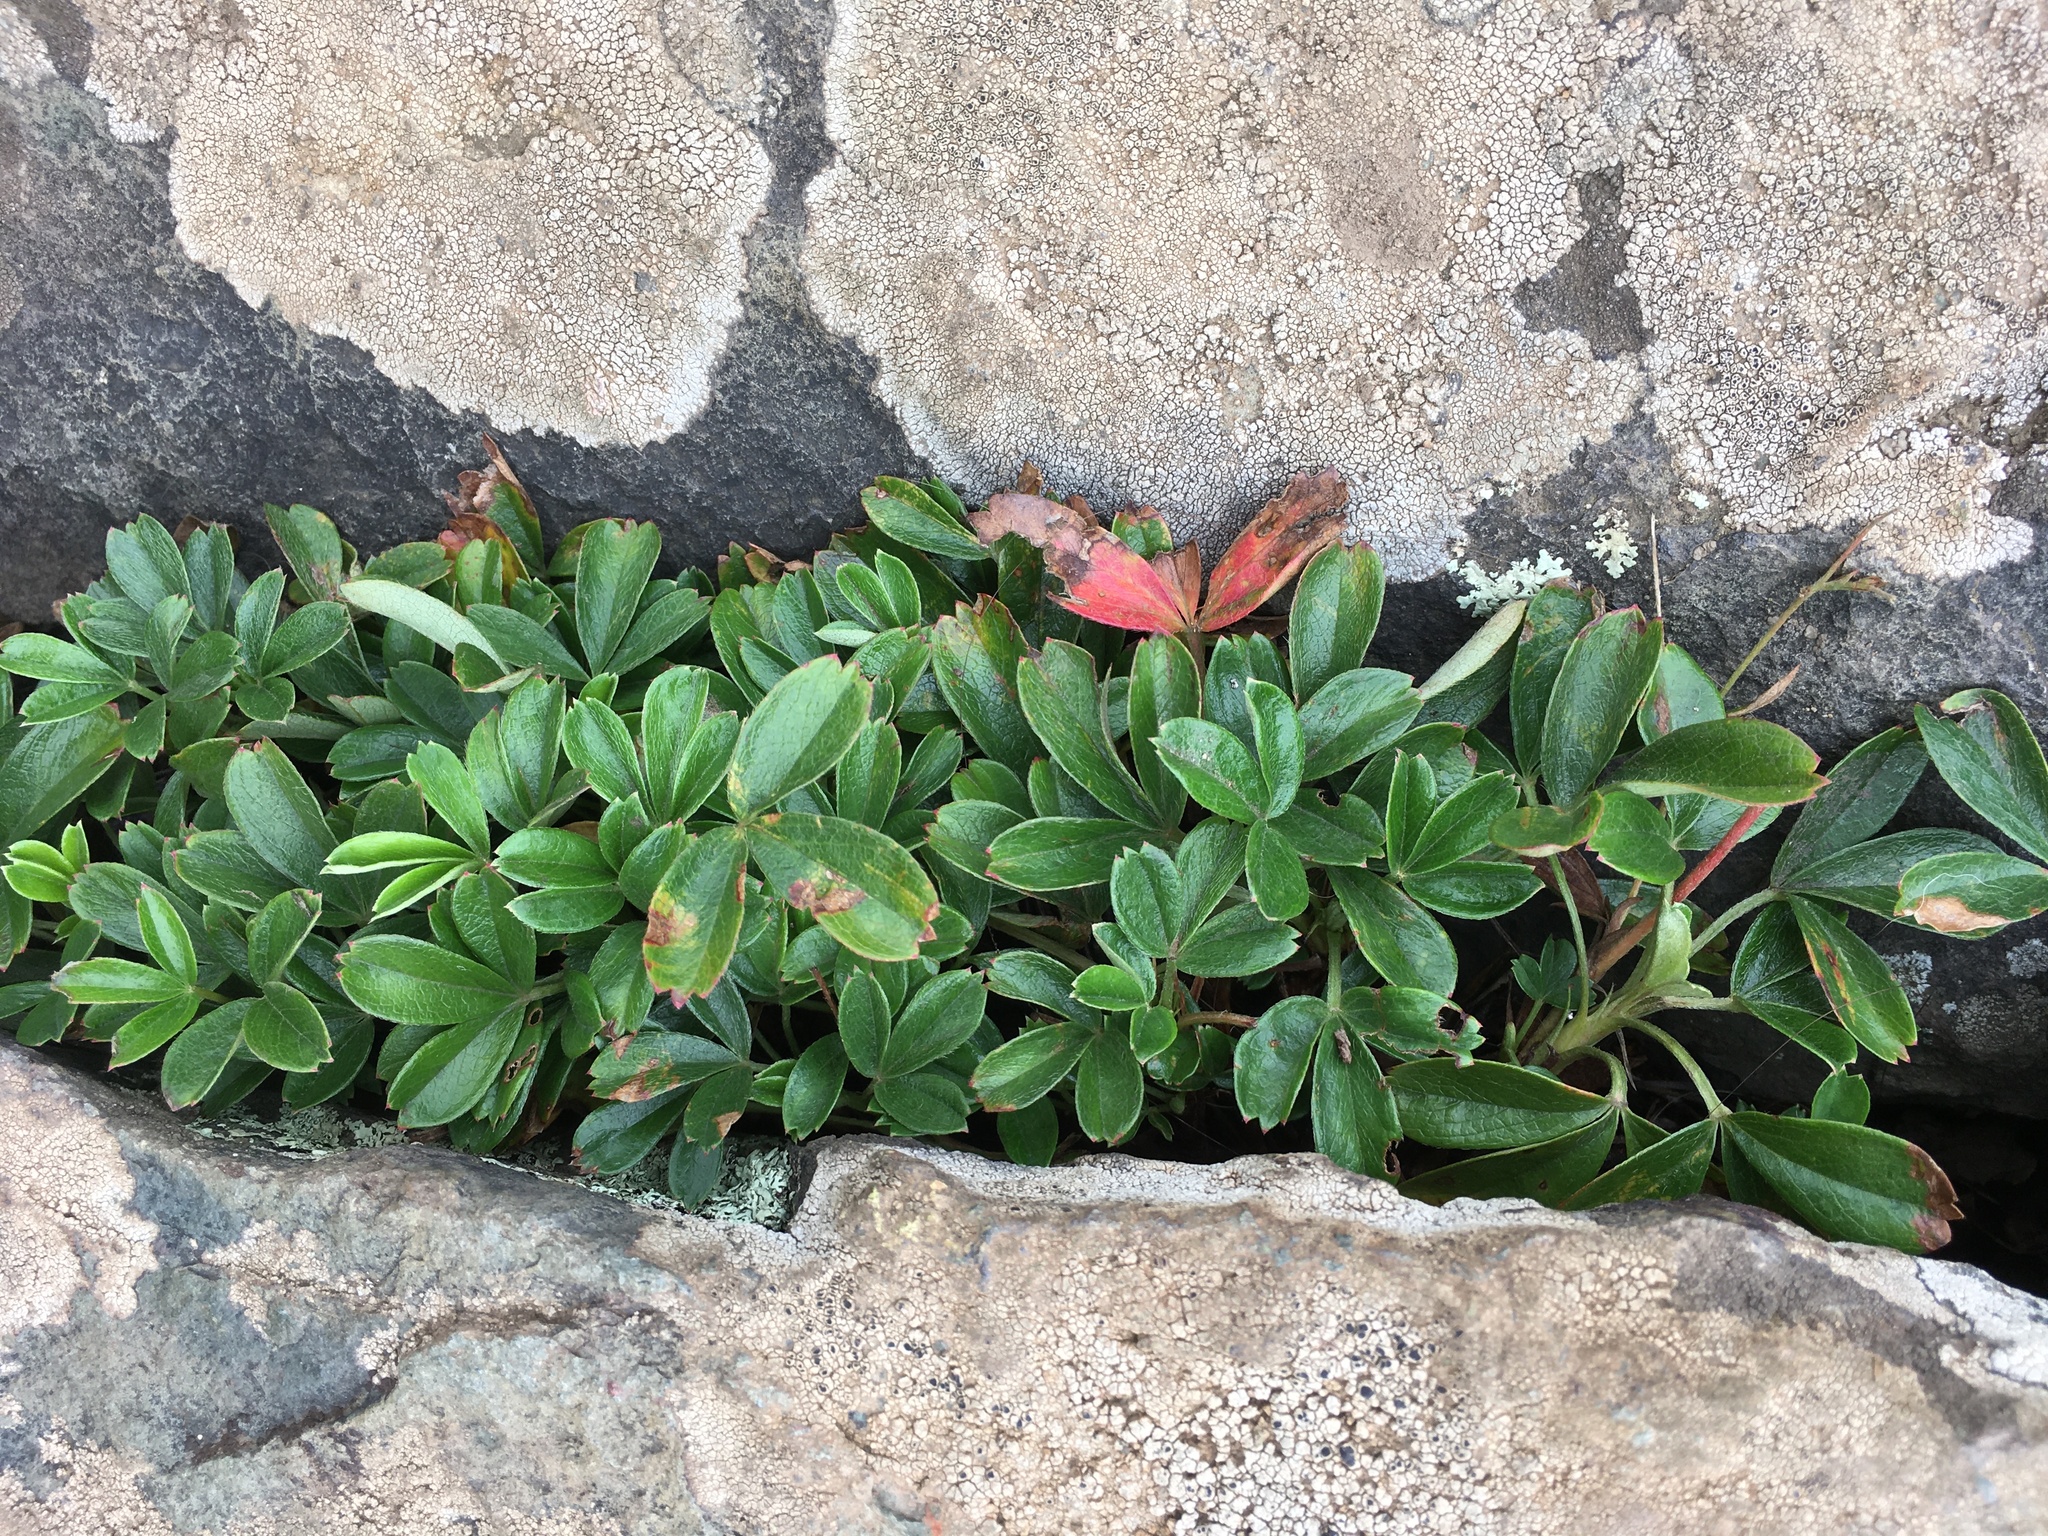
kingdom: Plantae
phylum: Tracheophyta
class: Magnoliopsida
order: Rosales
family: Rosaceae
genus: Sibbaldia
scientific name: Sibbaldia tridentata
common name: Three-toothed cinquefoil
